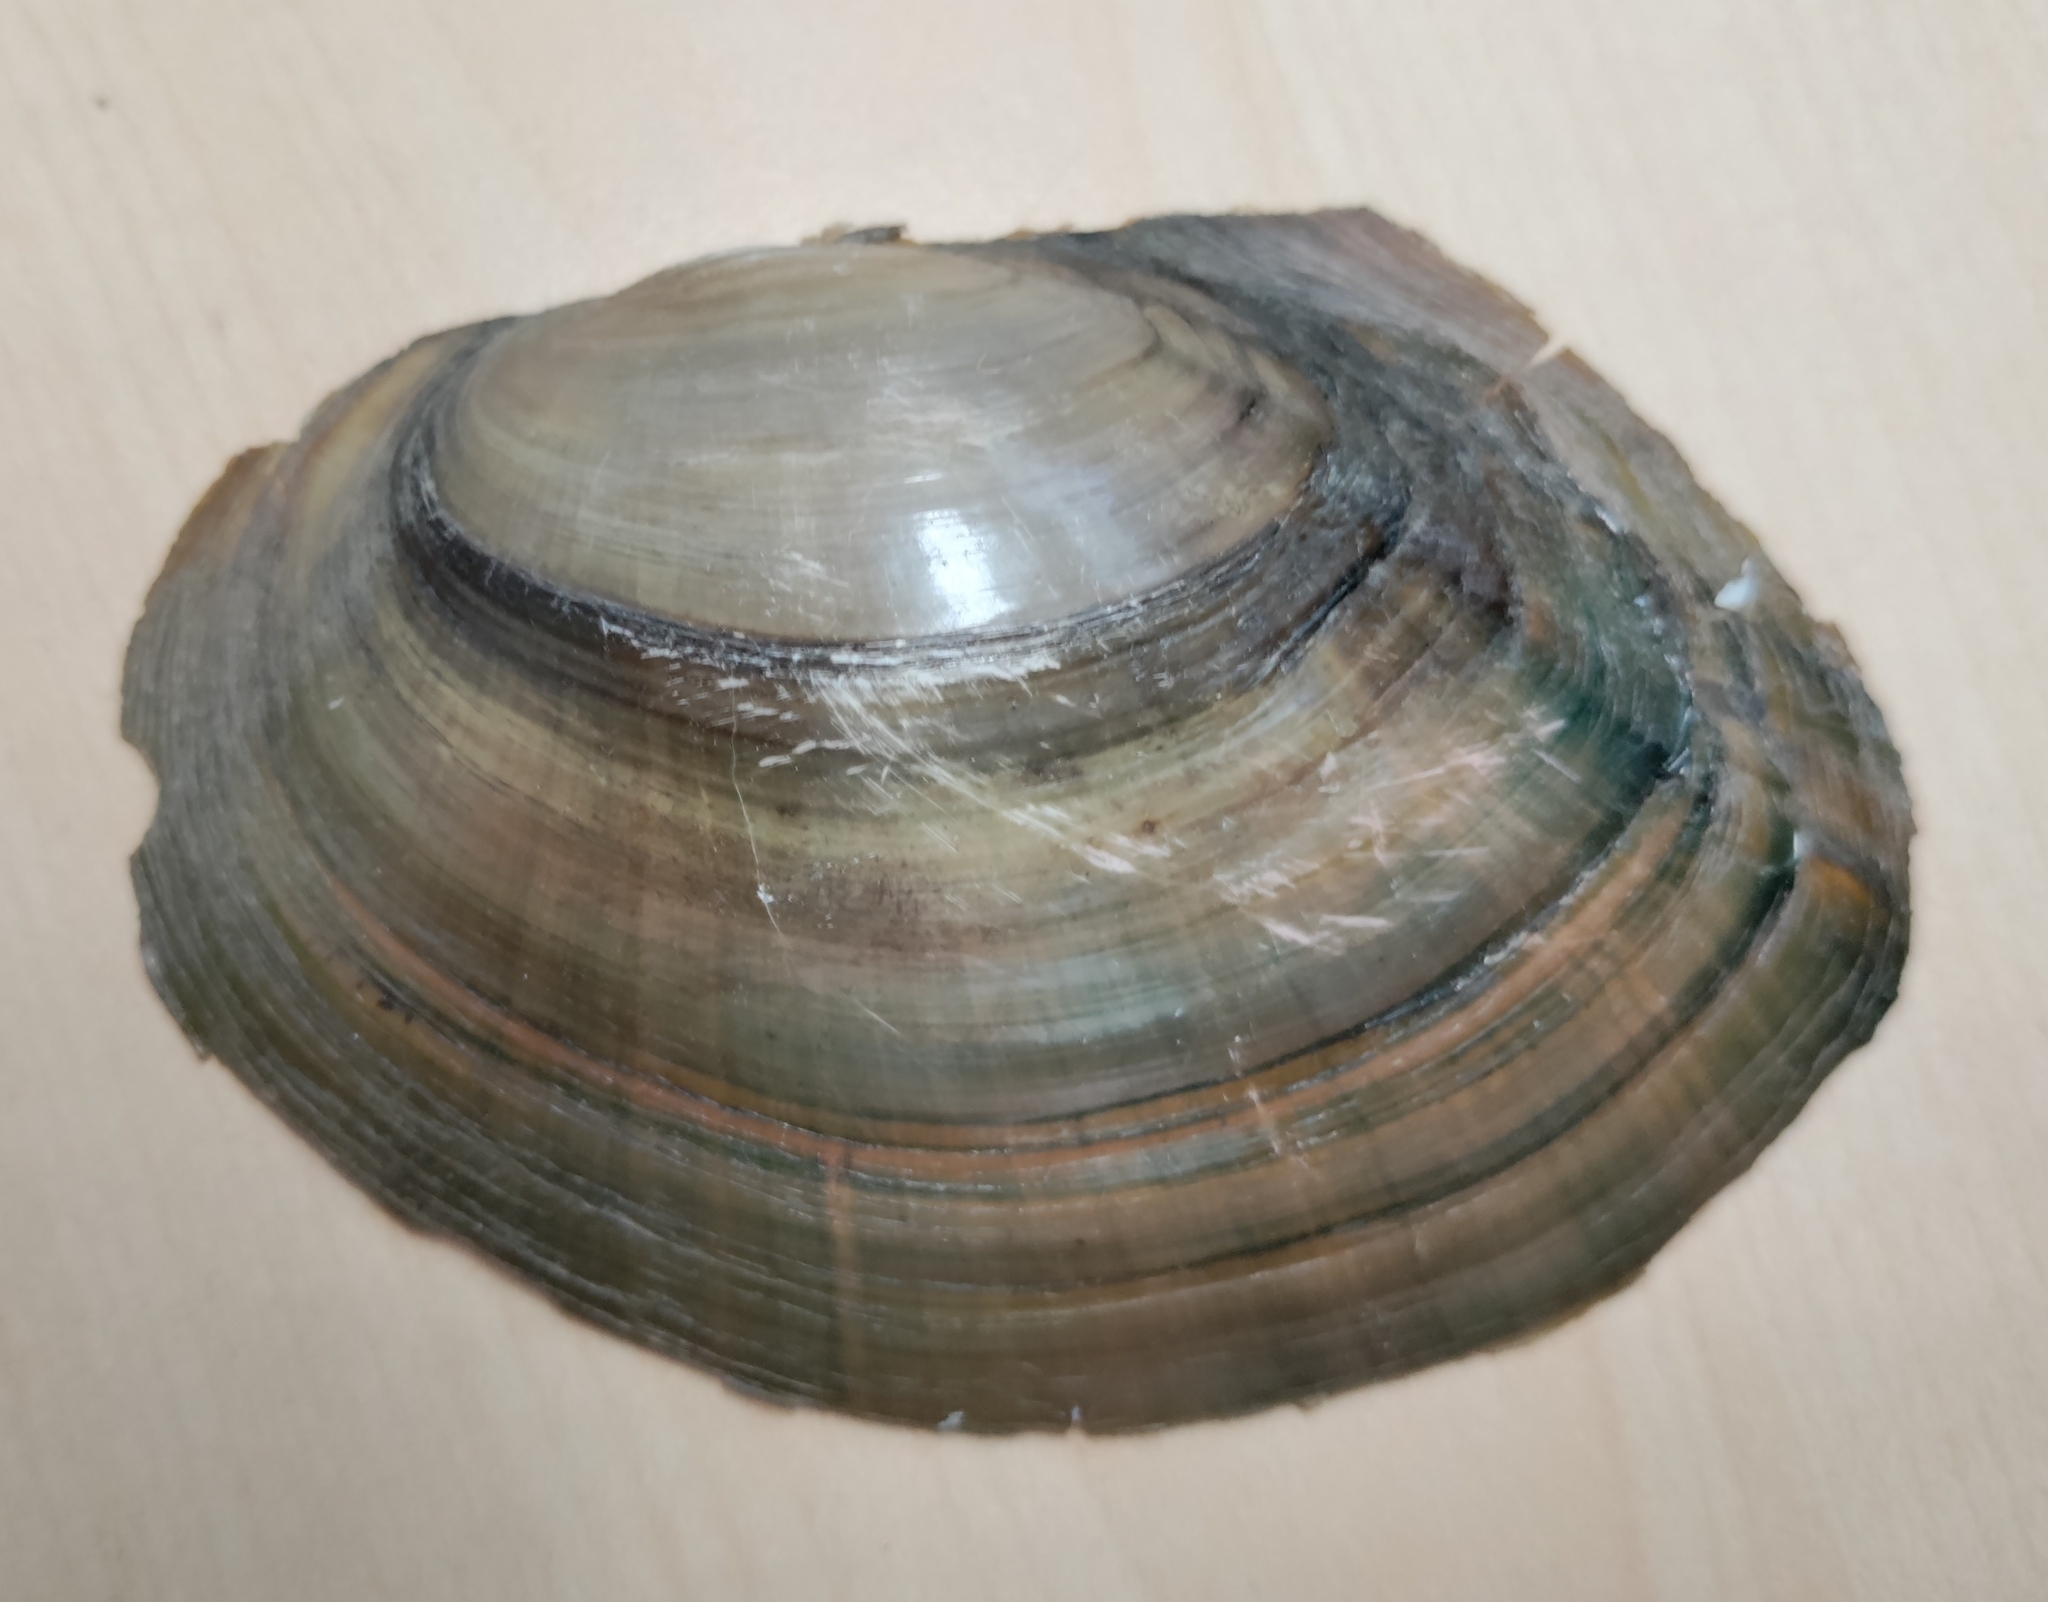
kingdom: Animalia
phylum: Mollusca
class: Bivalvia
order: Unionida
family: Unionidae
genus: Sinanodonta
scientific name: Sinanodonta woodiana
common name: Chinese pond mussel
